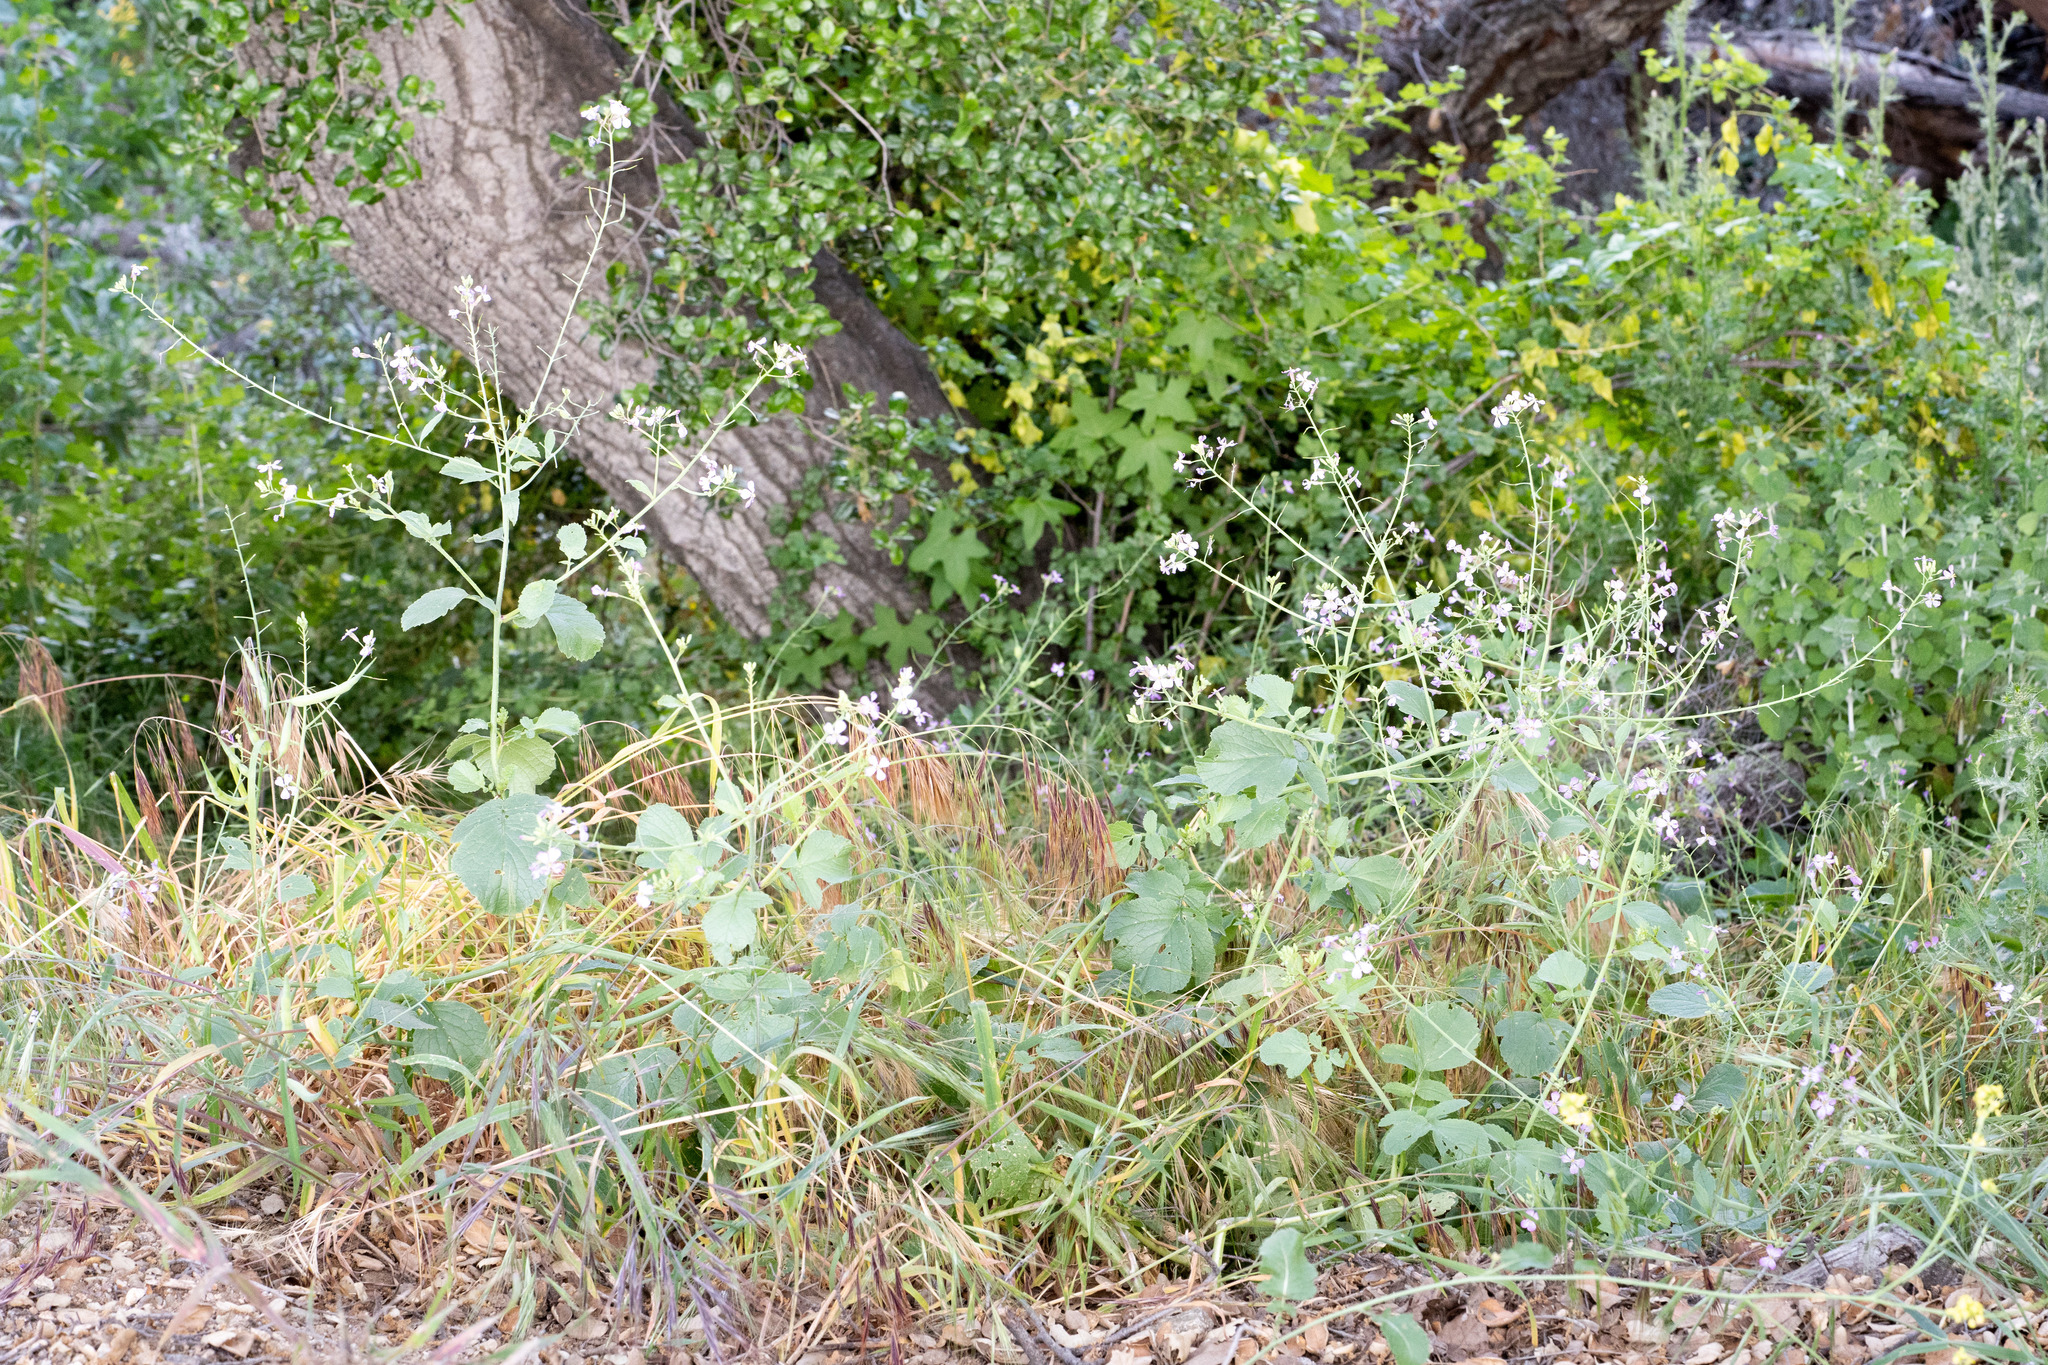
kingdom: Plantae
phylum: Tracheophyta
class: Magnoliopsida
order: Brassicales
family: Brassicaceae
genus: Raphanus
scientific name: Raphanus sativus
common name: Cultivated radish
